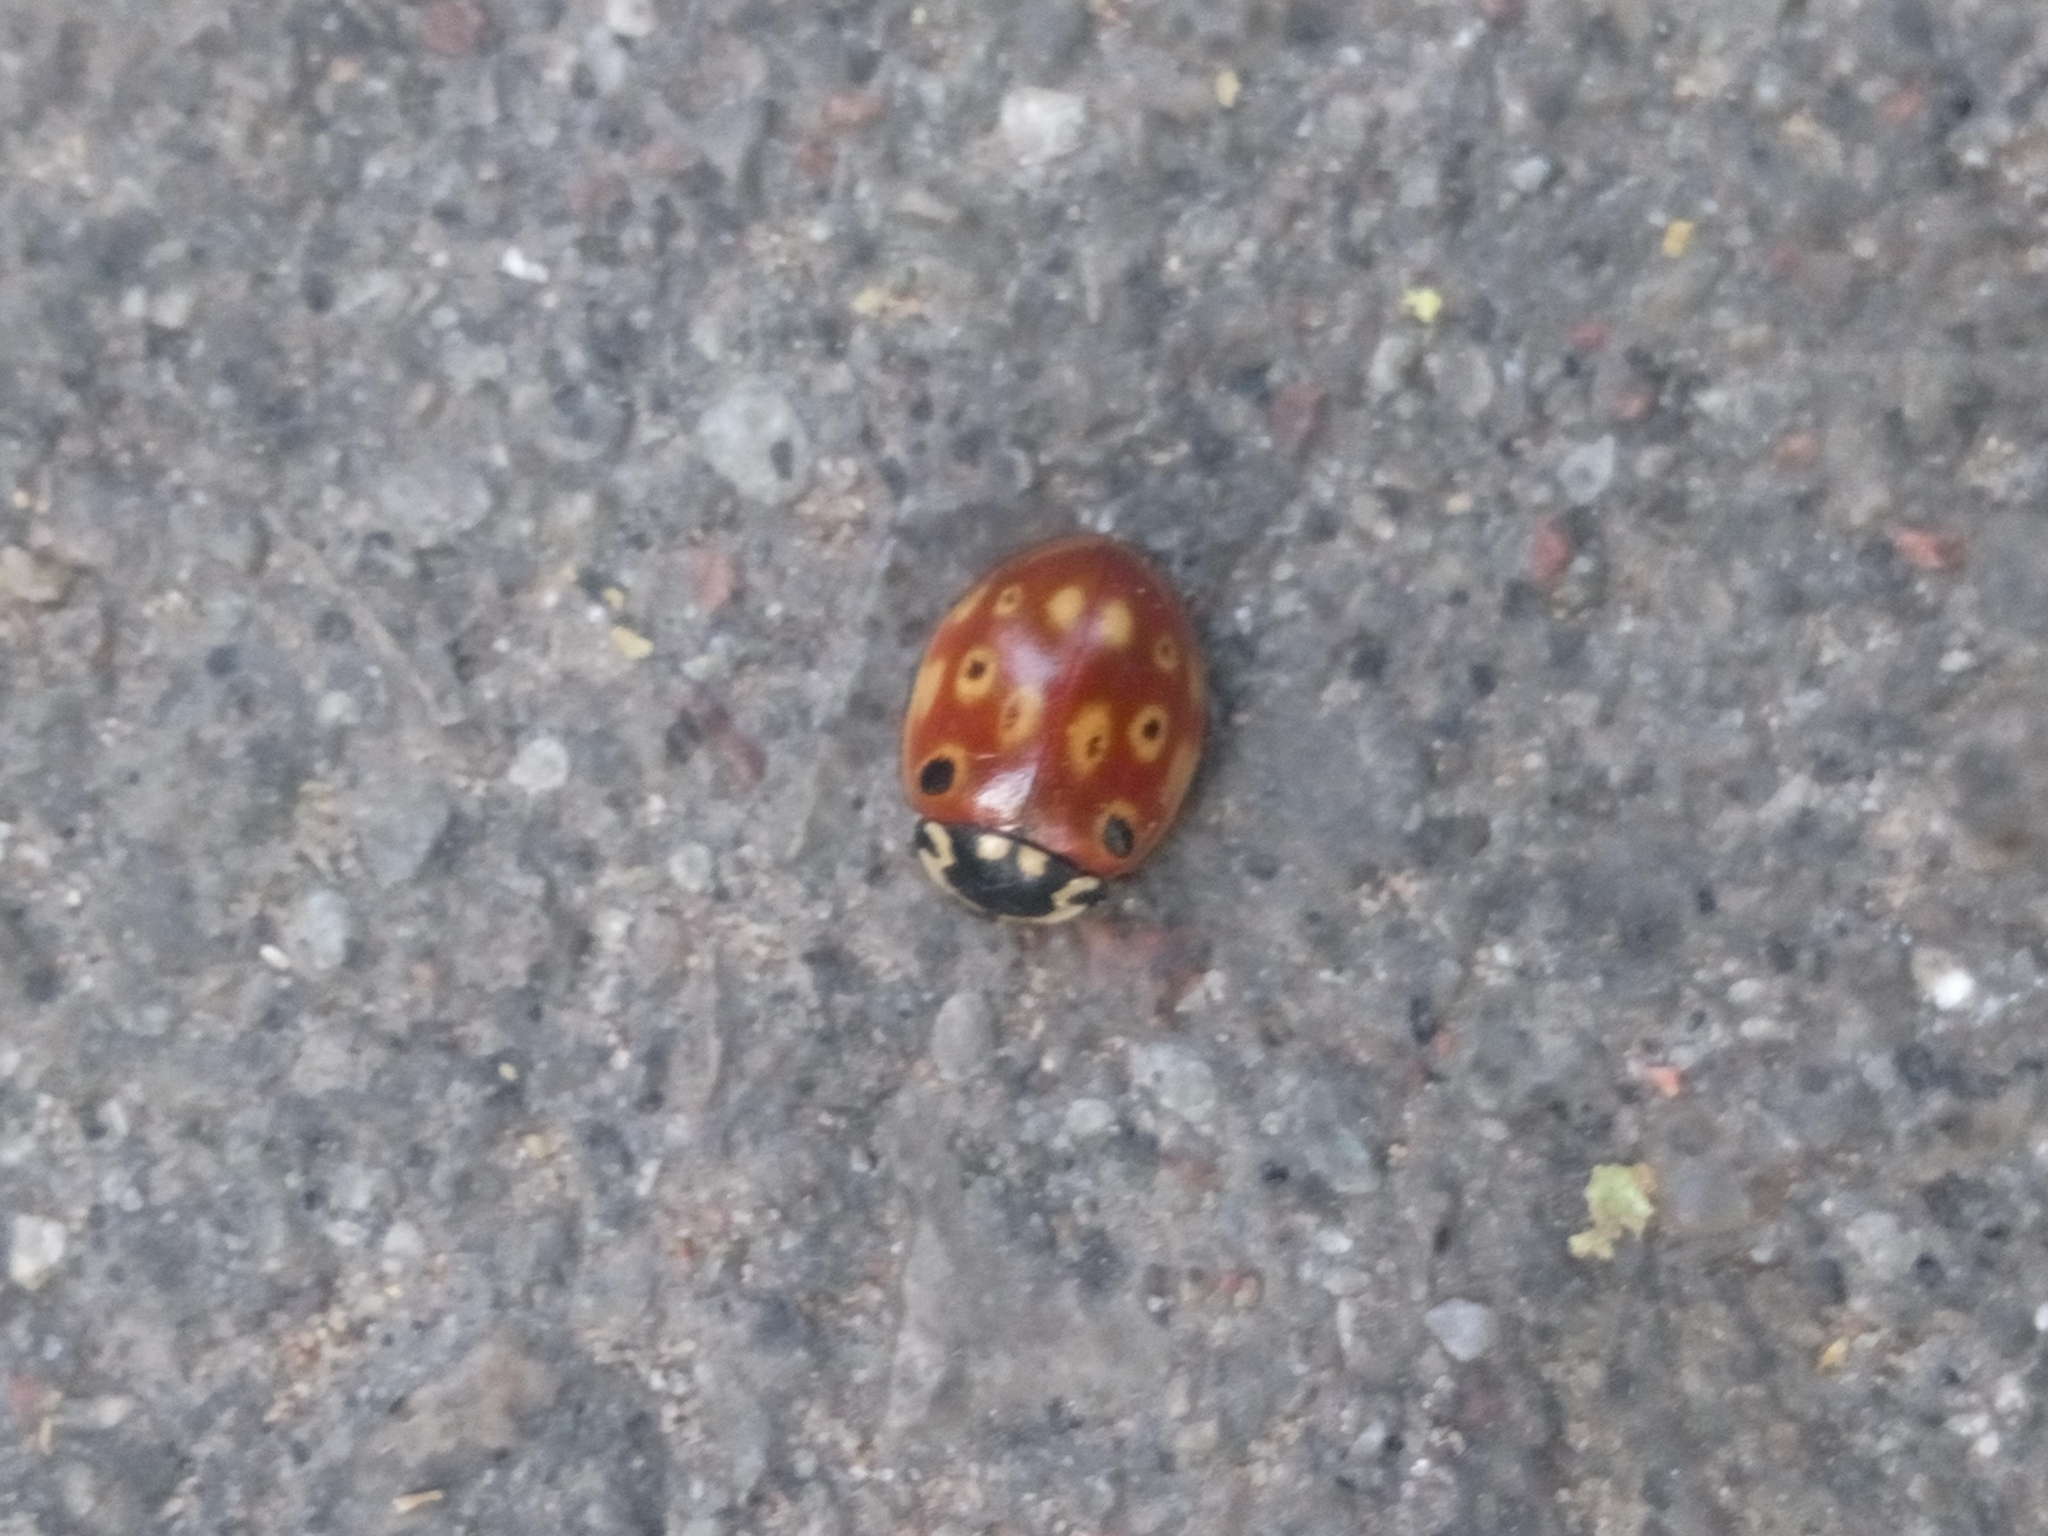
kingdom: Animalia
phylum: Arthropoda
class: Insecta
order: Coleoptera
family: Coccinellidae
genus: Anatis
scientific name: Anatis ocellata
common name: Eyed ladybird
